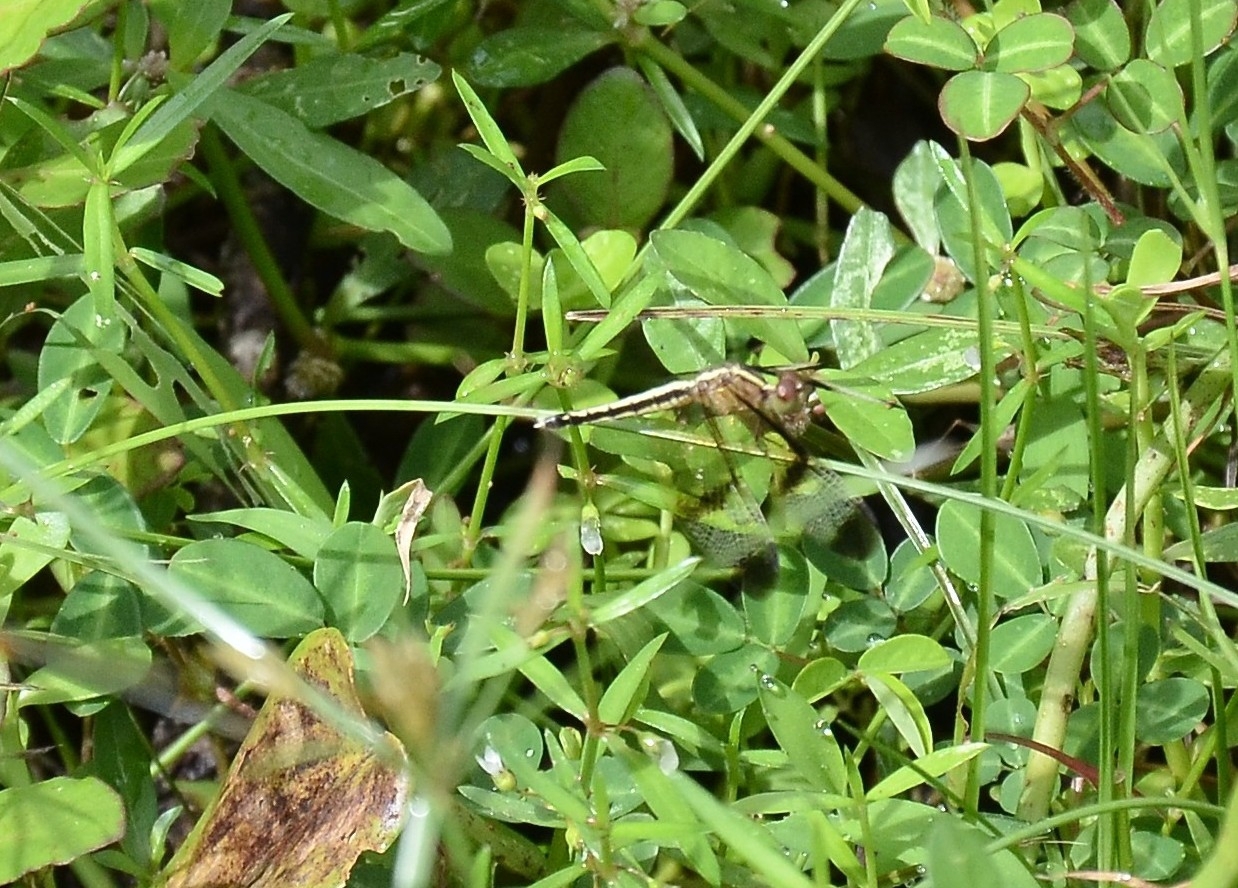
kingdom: Animalia
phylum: Arthropoda
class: Insecta
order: Odonata
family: Libellulidae
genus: Neurothemis
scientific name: Neurothemis tullia
